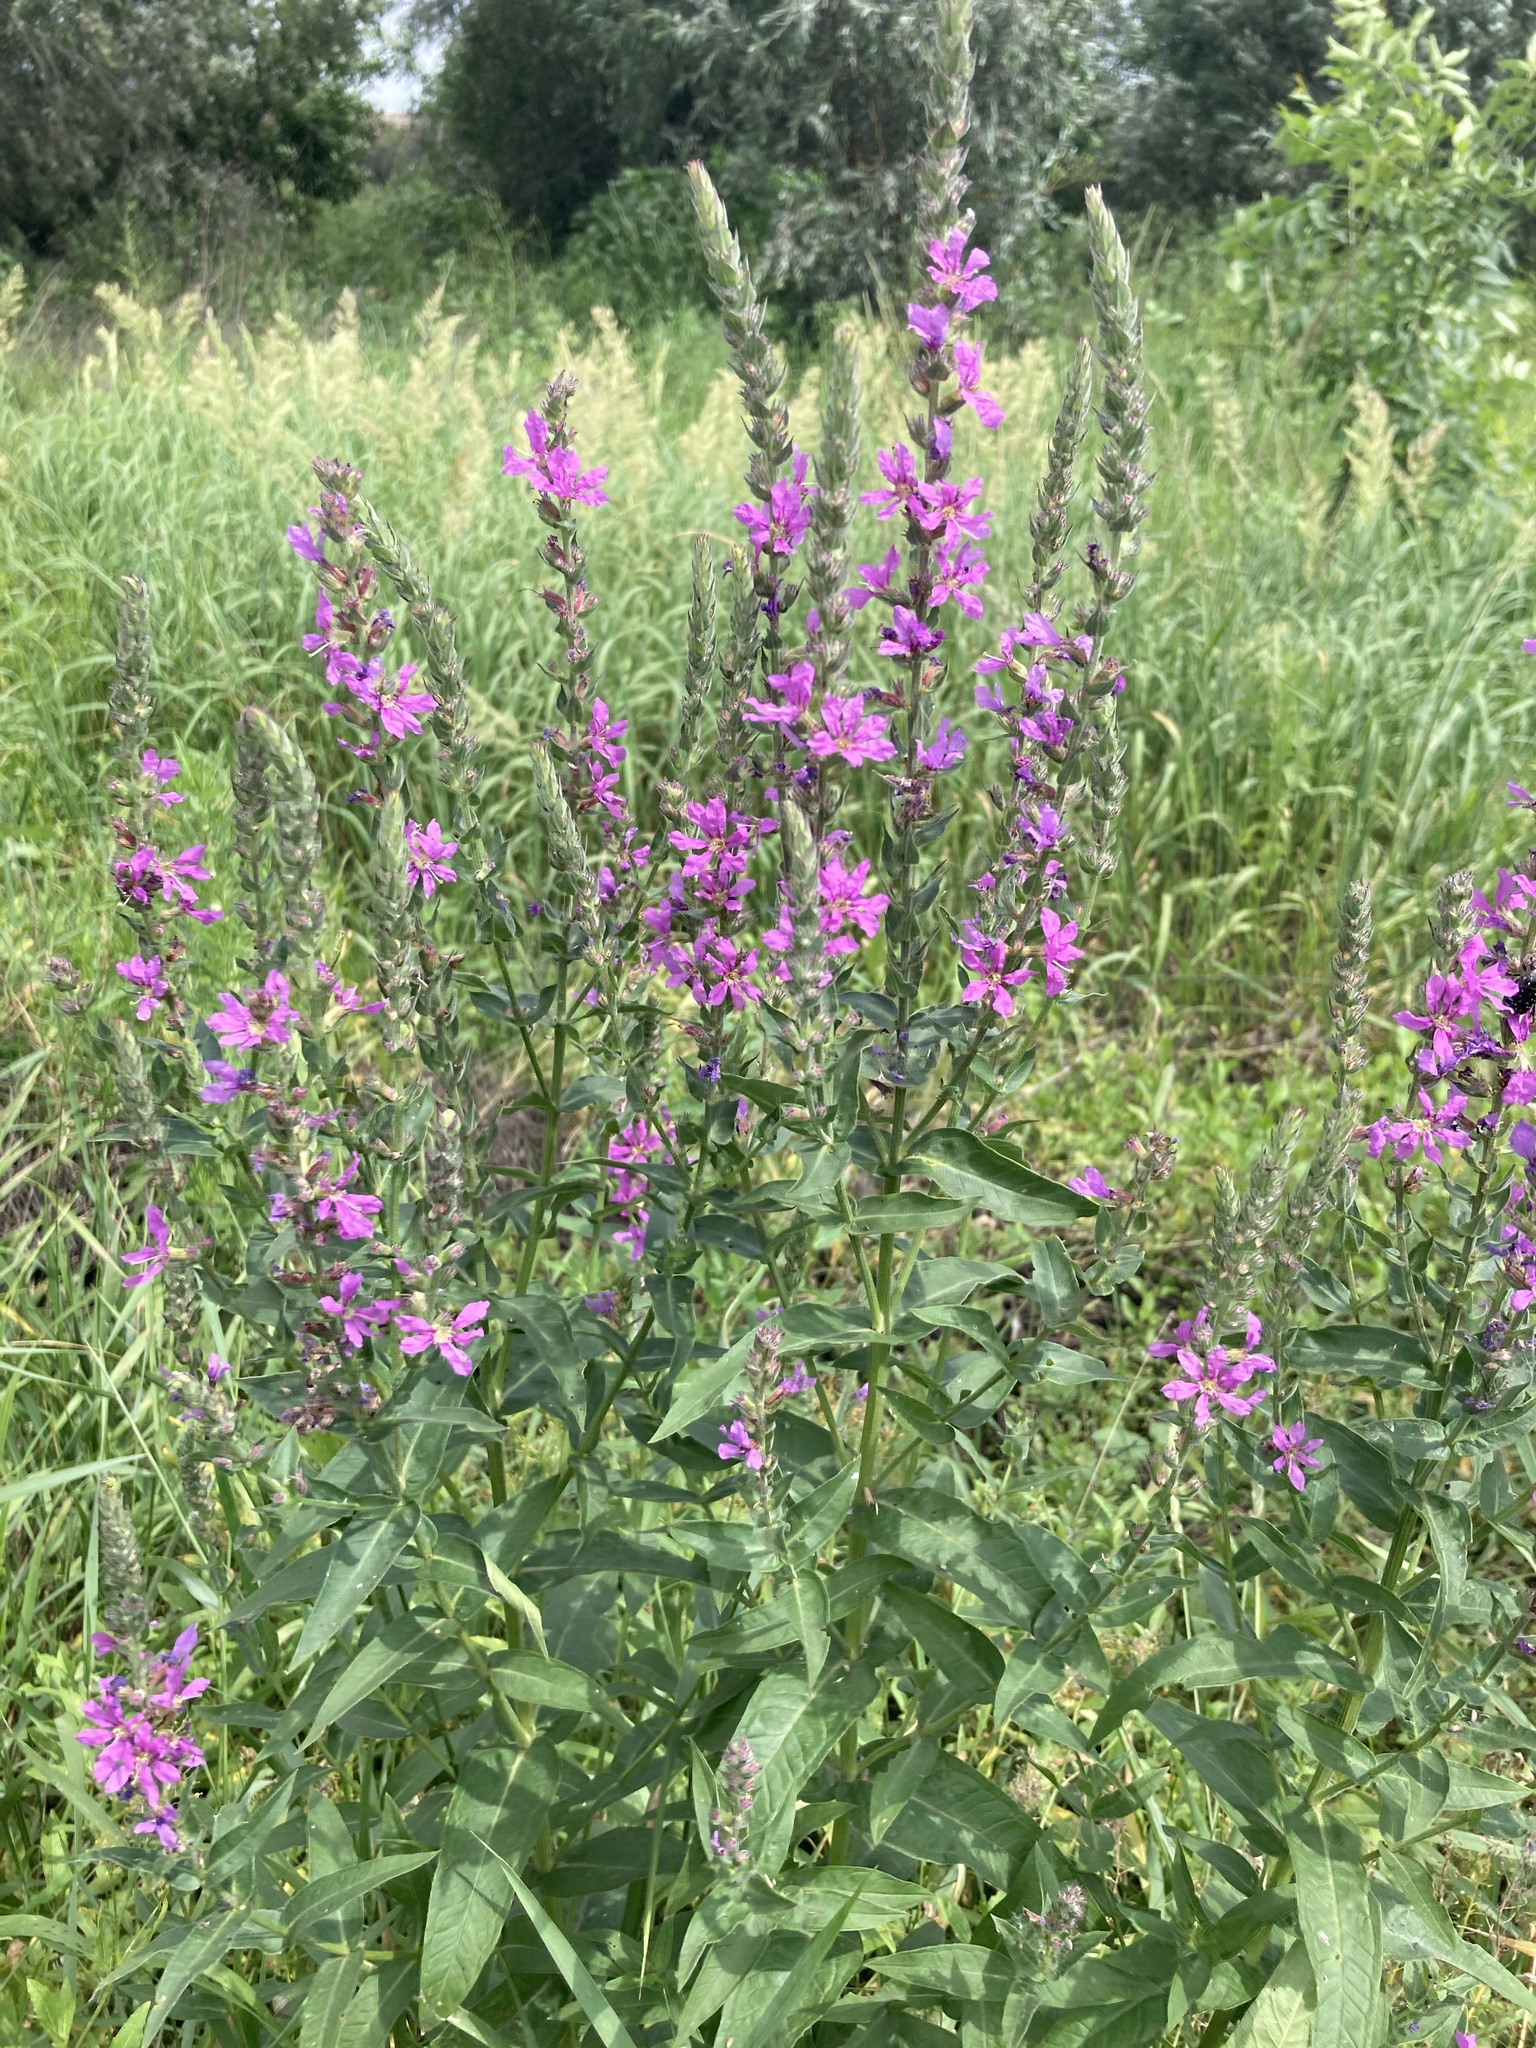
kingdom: Plantae
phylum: Tracheophyta
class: Magnoliopsida
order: Myrtales
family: Lythraceae
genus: Lythrum
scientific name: Lythrum salicaria
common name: Purple loosestrife
